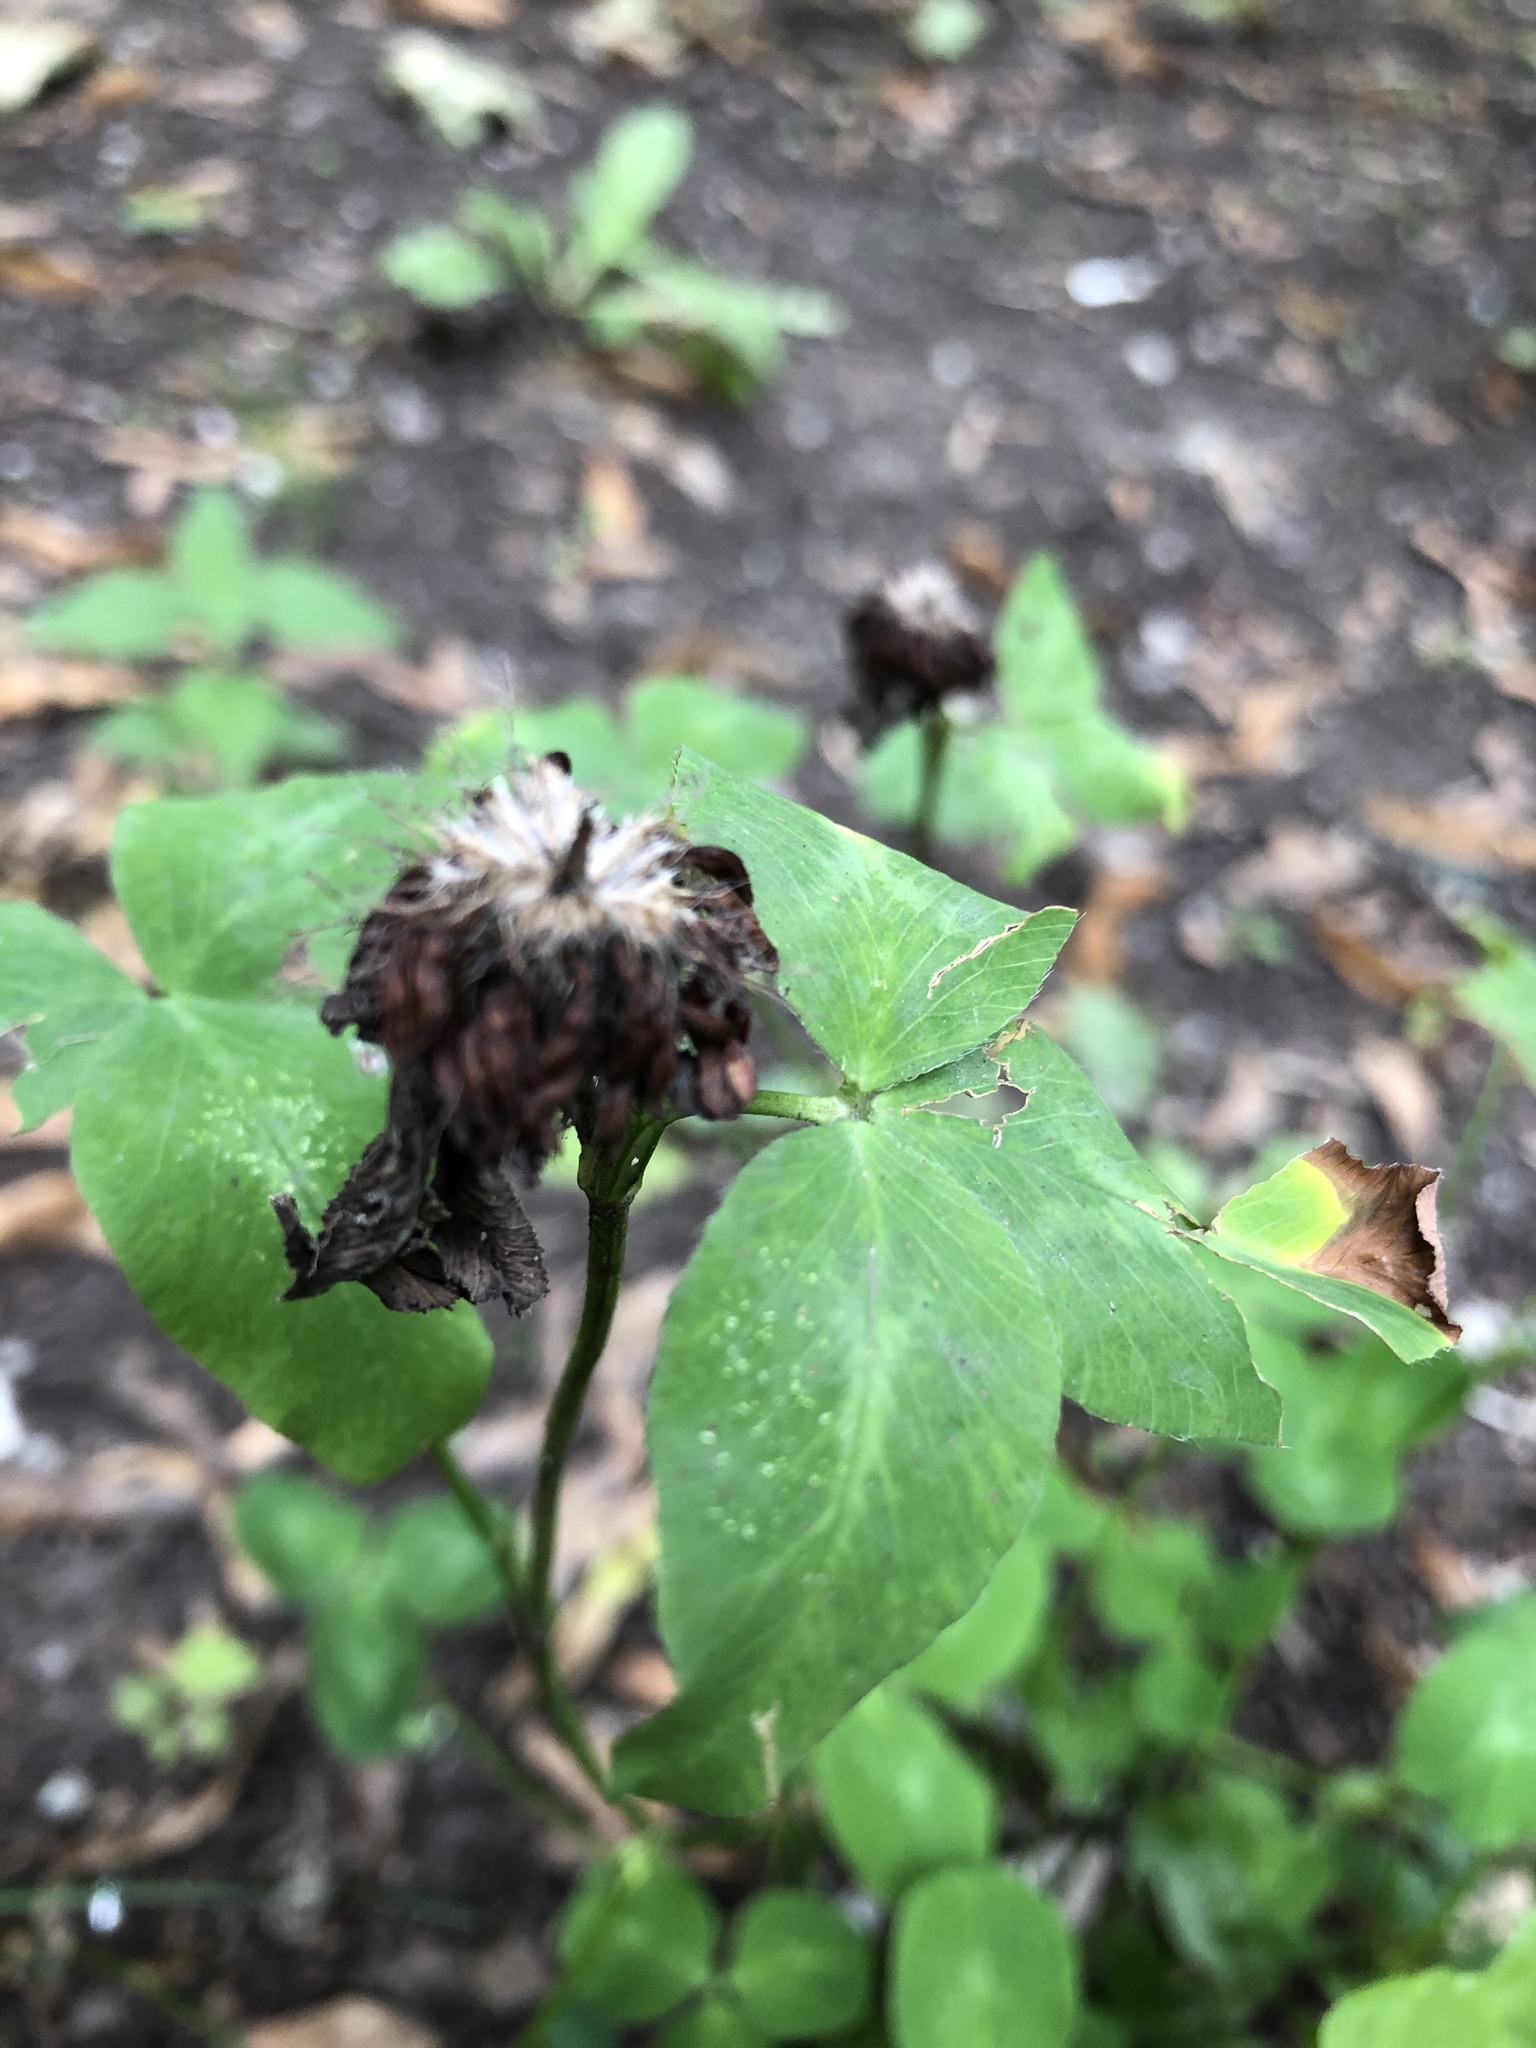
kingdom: Plantae
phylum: Tracheophyta
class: Magnoliopsida
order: Fabales
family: Fabaceae
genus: Trifolium
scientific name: Trifolium pratense
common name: Red clover
